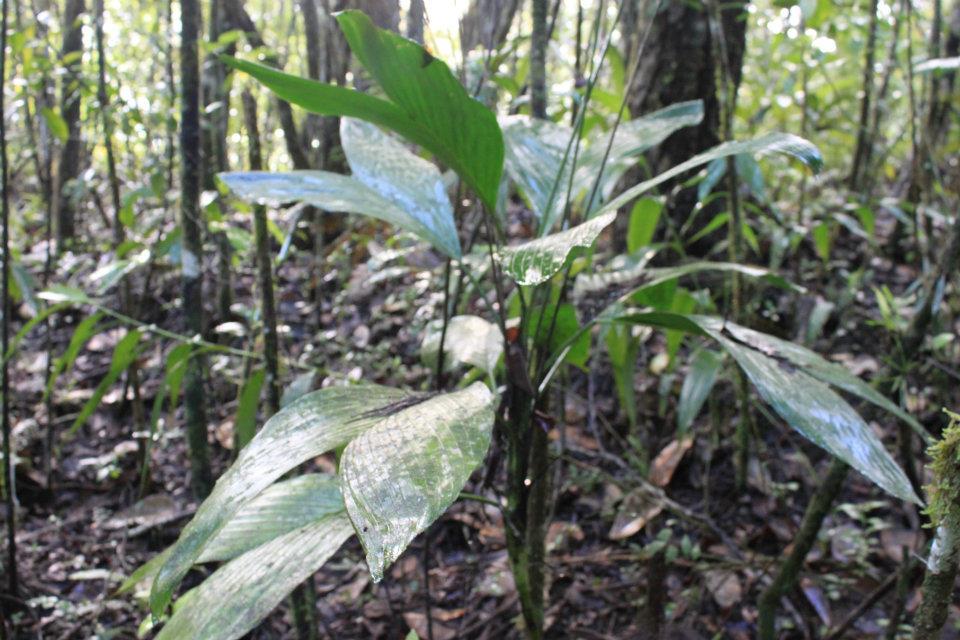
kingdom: Plantae
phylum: Tracheophyta
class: Liliopsida
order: Arecales
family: Arecaceae
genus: Chamaedorea
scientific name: Chamaedorea ernesti-augusti
